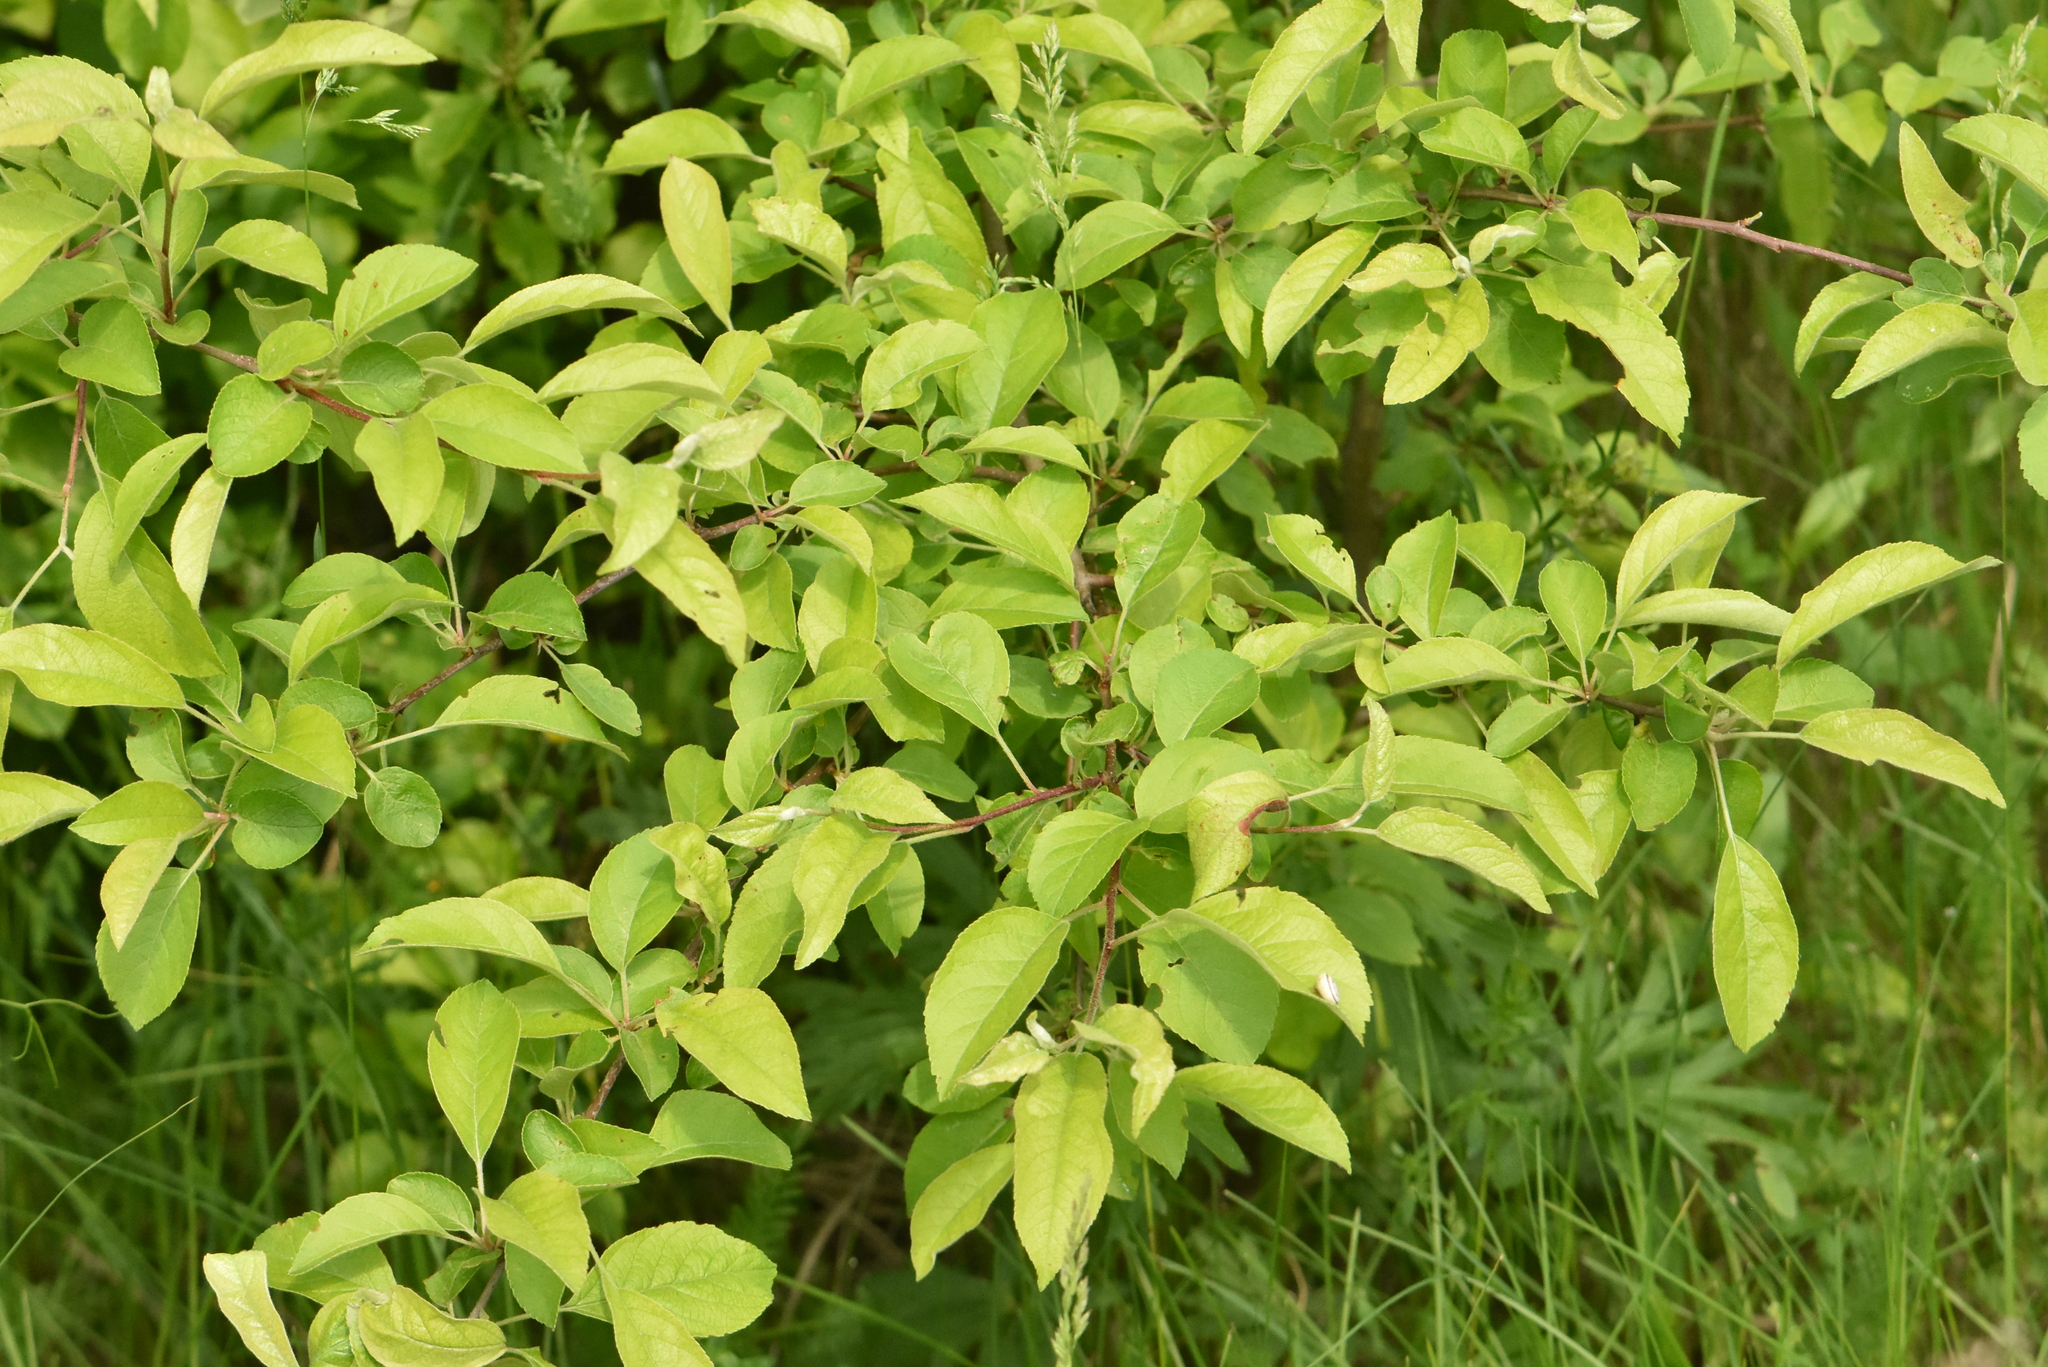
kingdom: Plantae
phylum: Tracheophyta
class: Magnoliopsida
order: Rosales
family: Rosaceae
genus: Prunus
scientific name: Prunus spinosa
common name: Blackthorn
